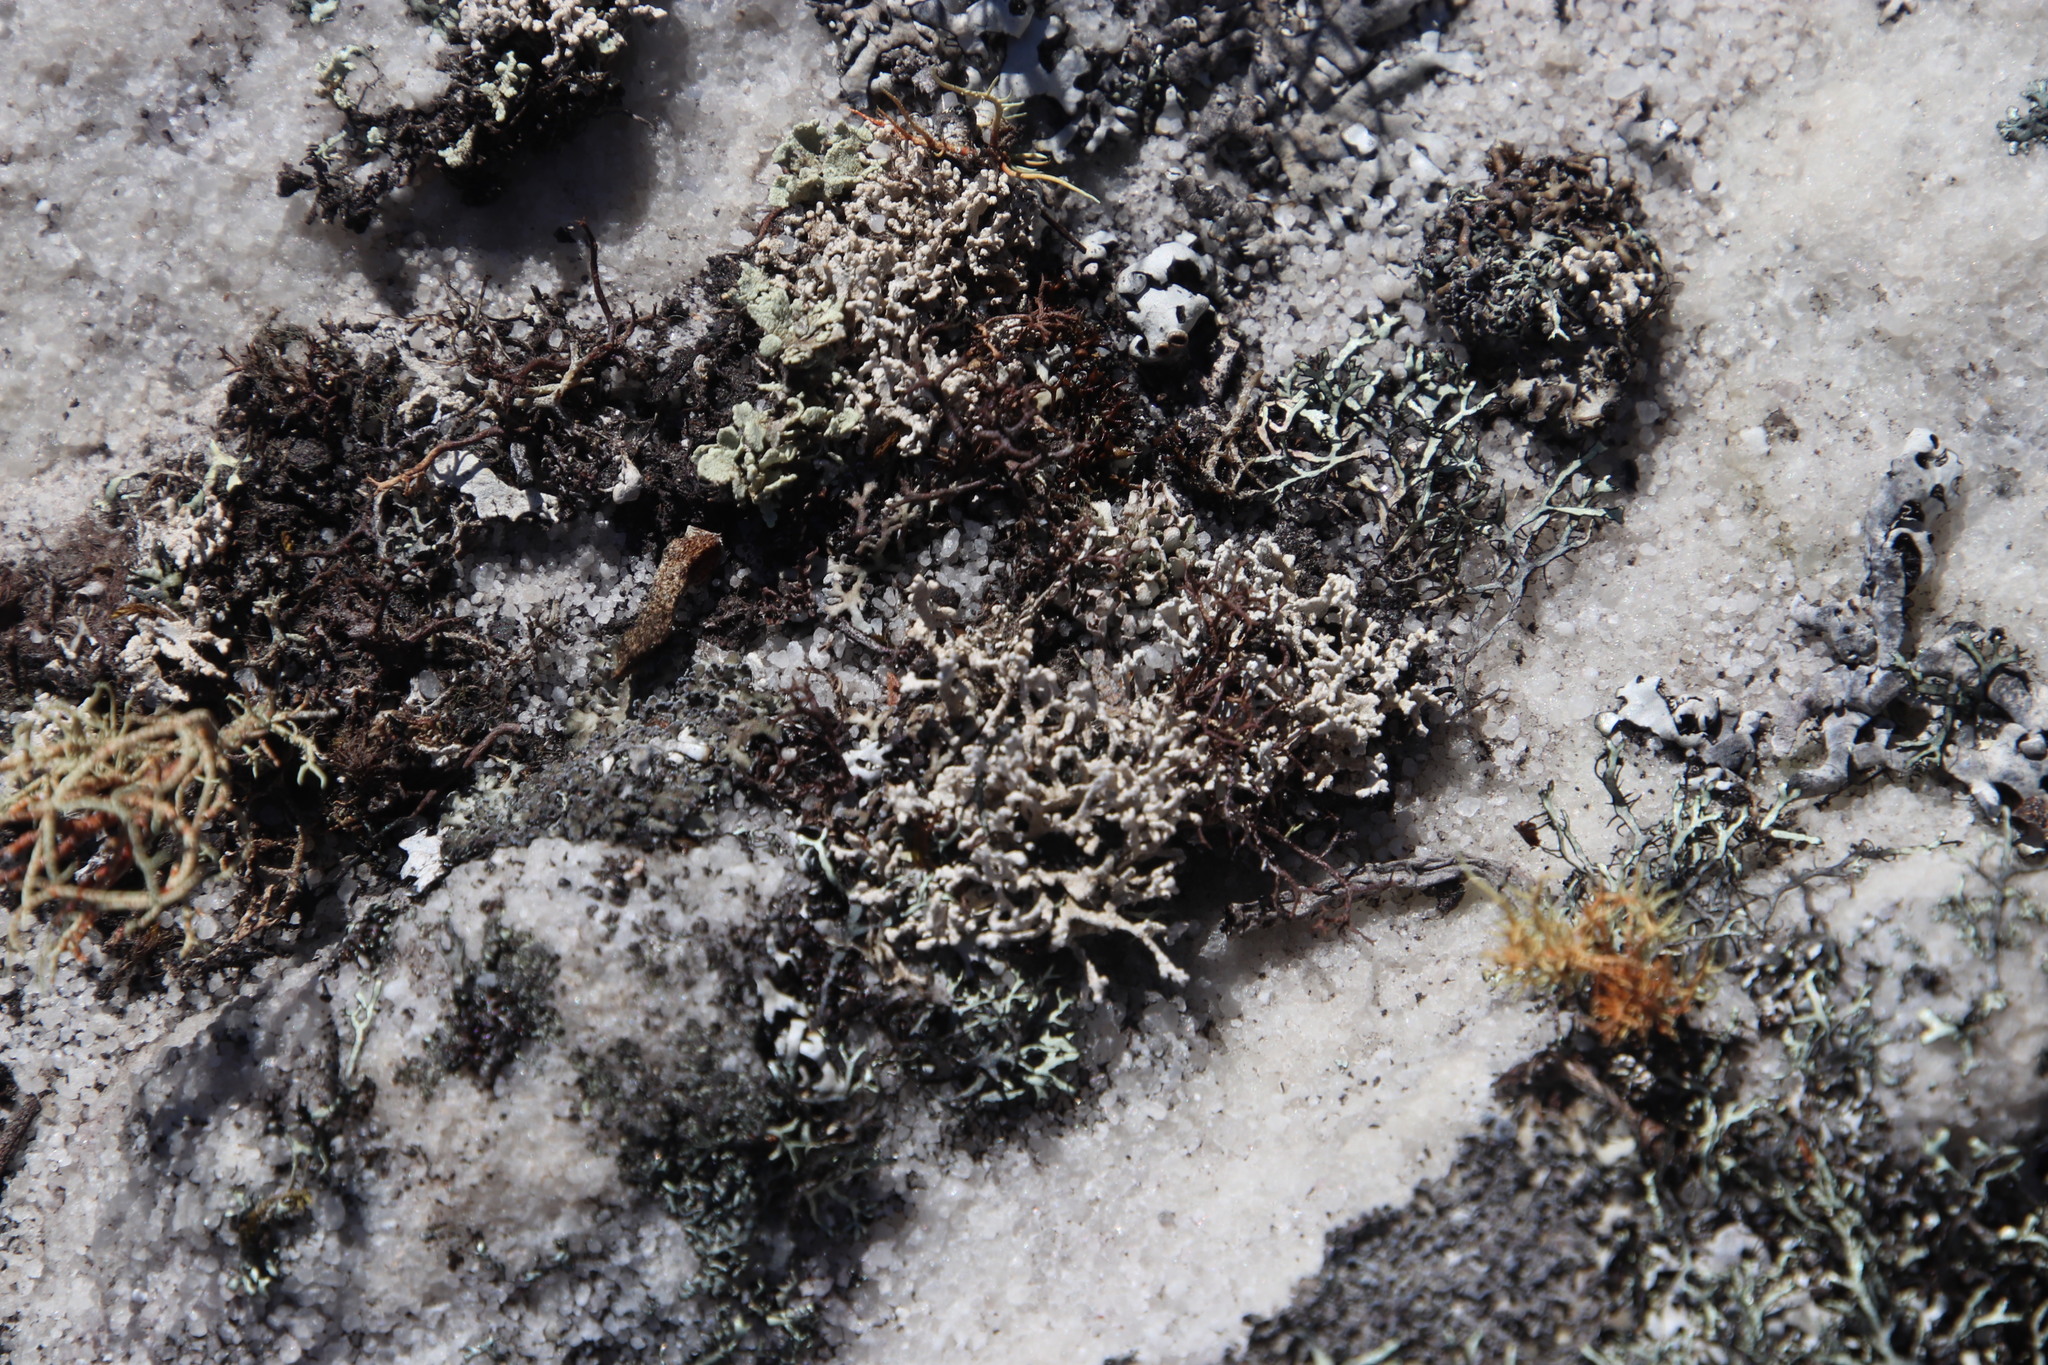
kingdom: Fungi
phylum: Ascomycota
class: Lecanoromycetes
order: Caliciales
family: Physciaceae
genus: Leucodermia
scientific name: Leucodermia leucomelos
